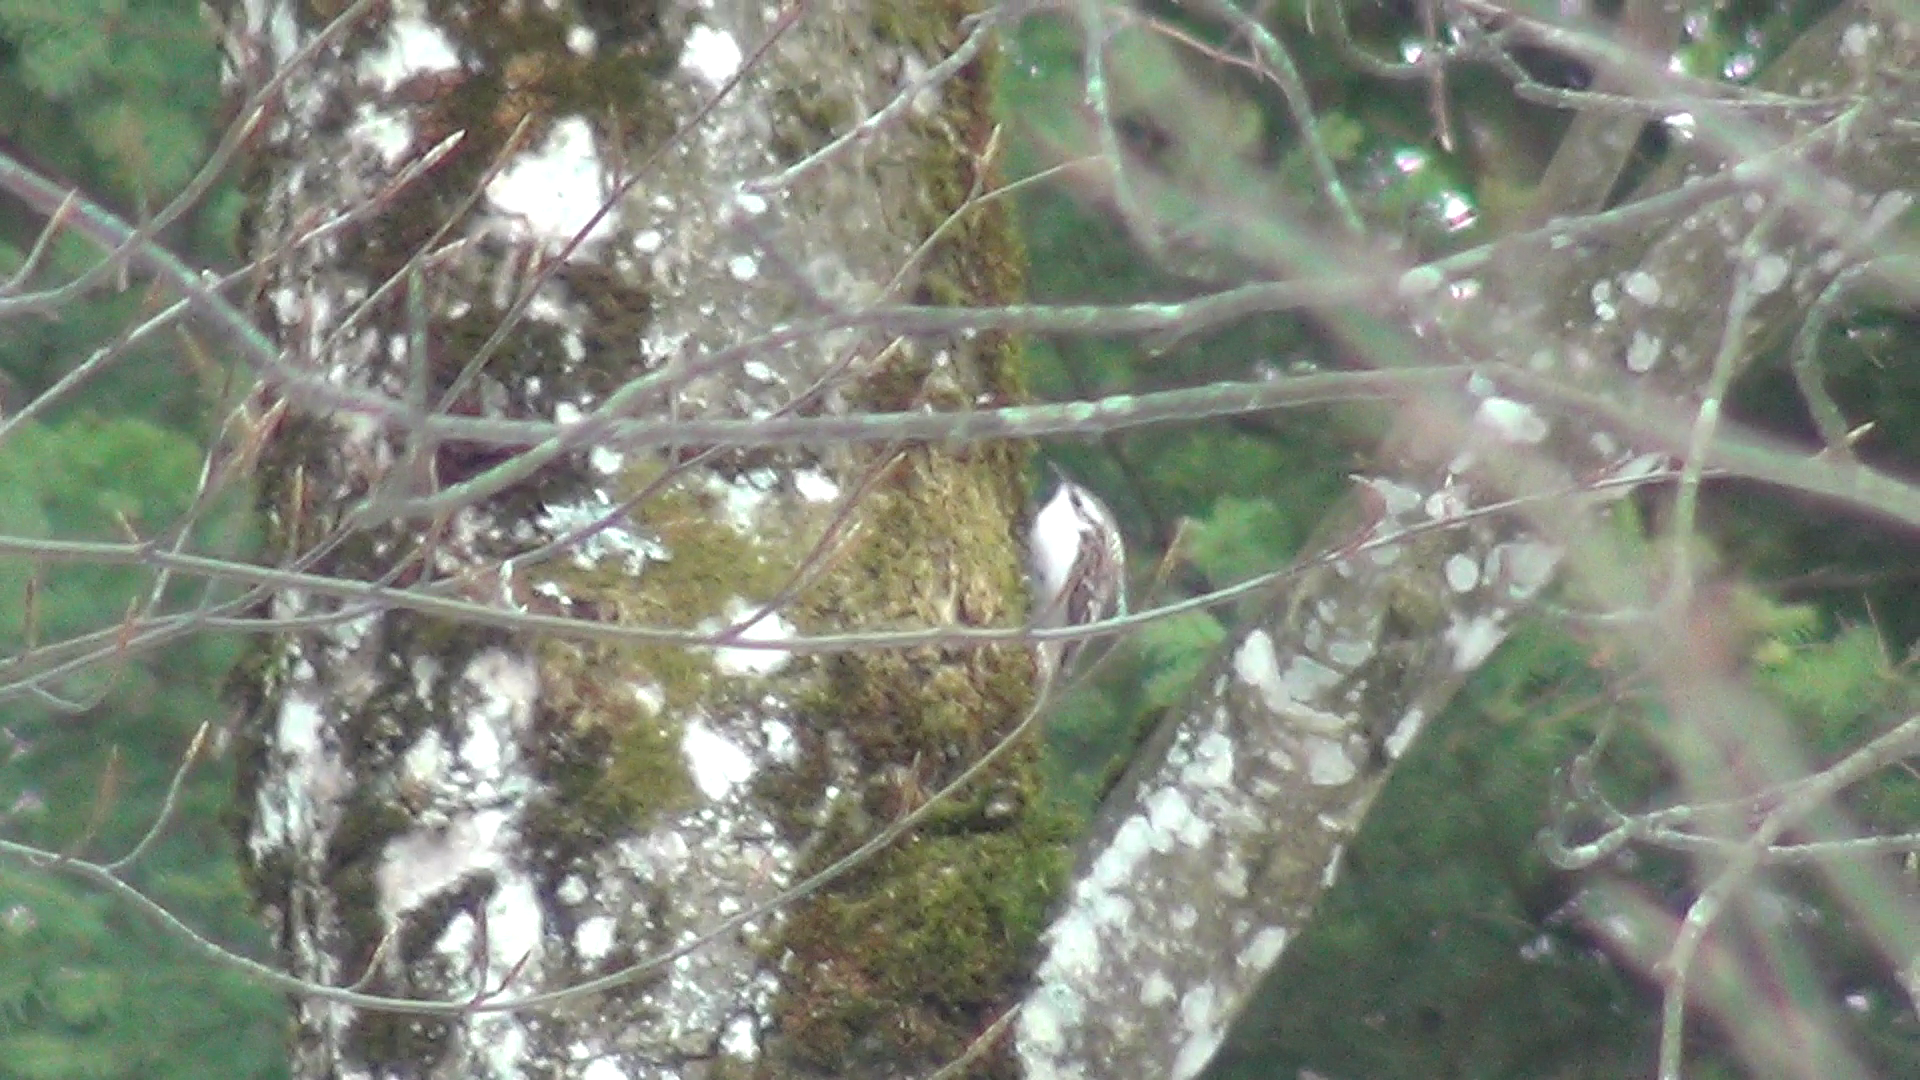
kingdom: Animalia
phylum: Chordata
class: Aves
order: Passeriformes
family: Certhiidae
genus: Certhia
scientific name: Certhia familiaris
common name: Eurasian treecreeper
